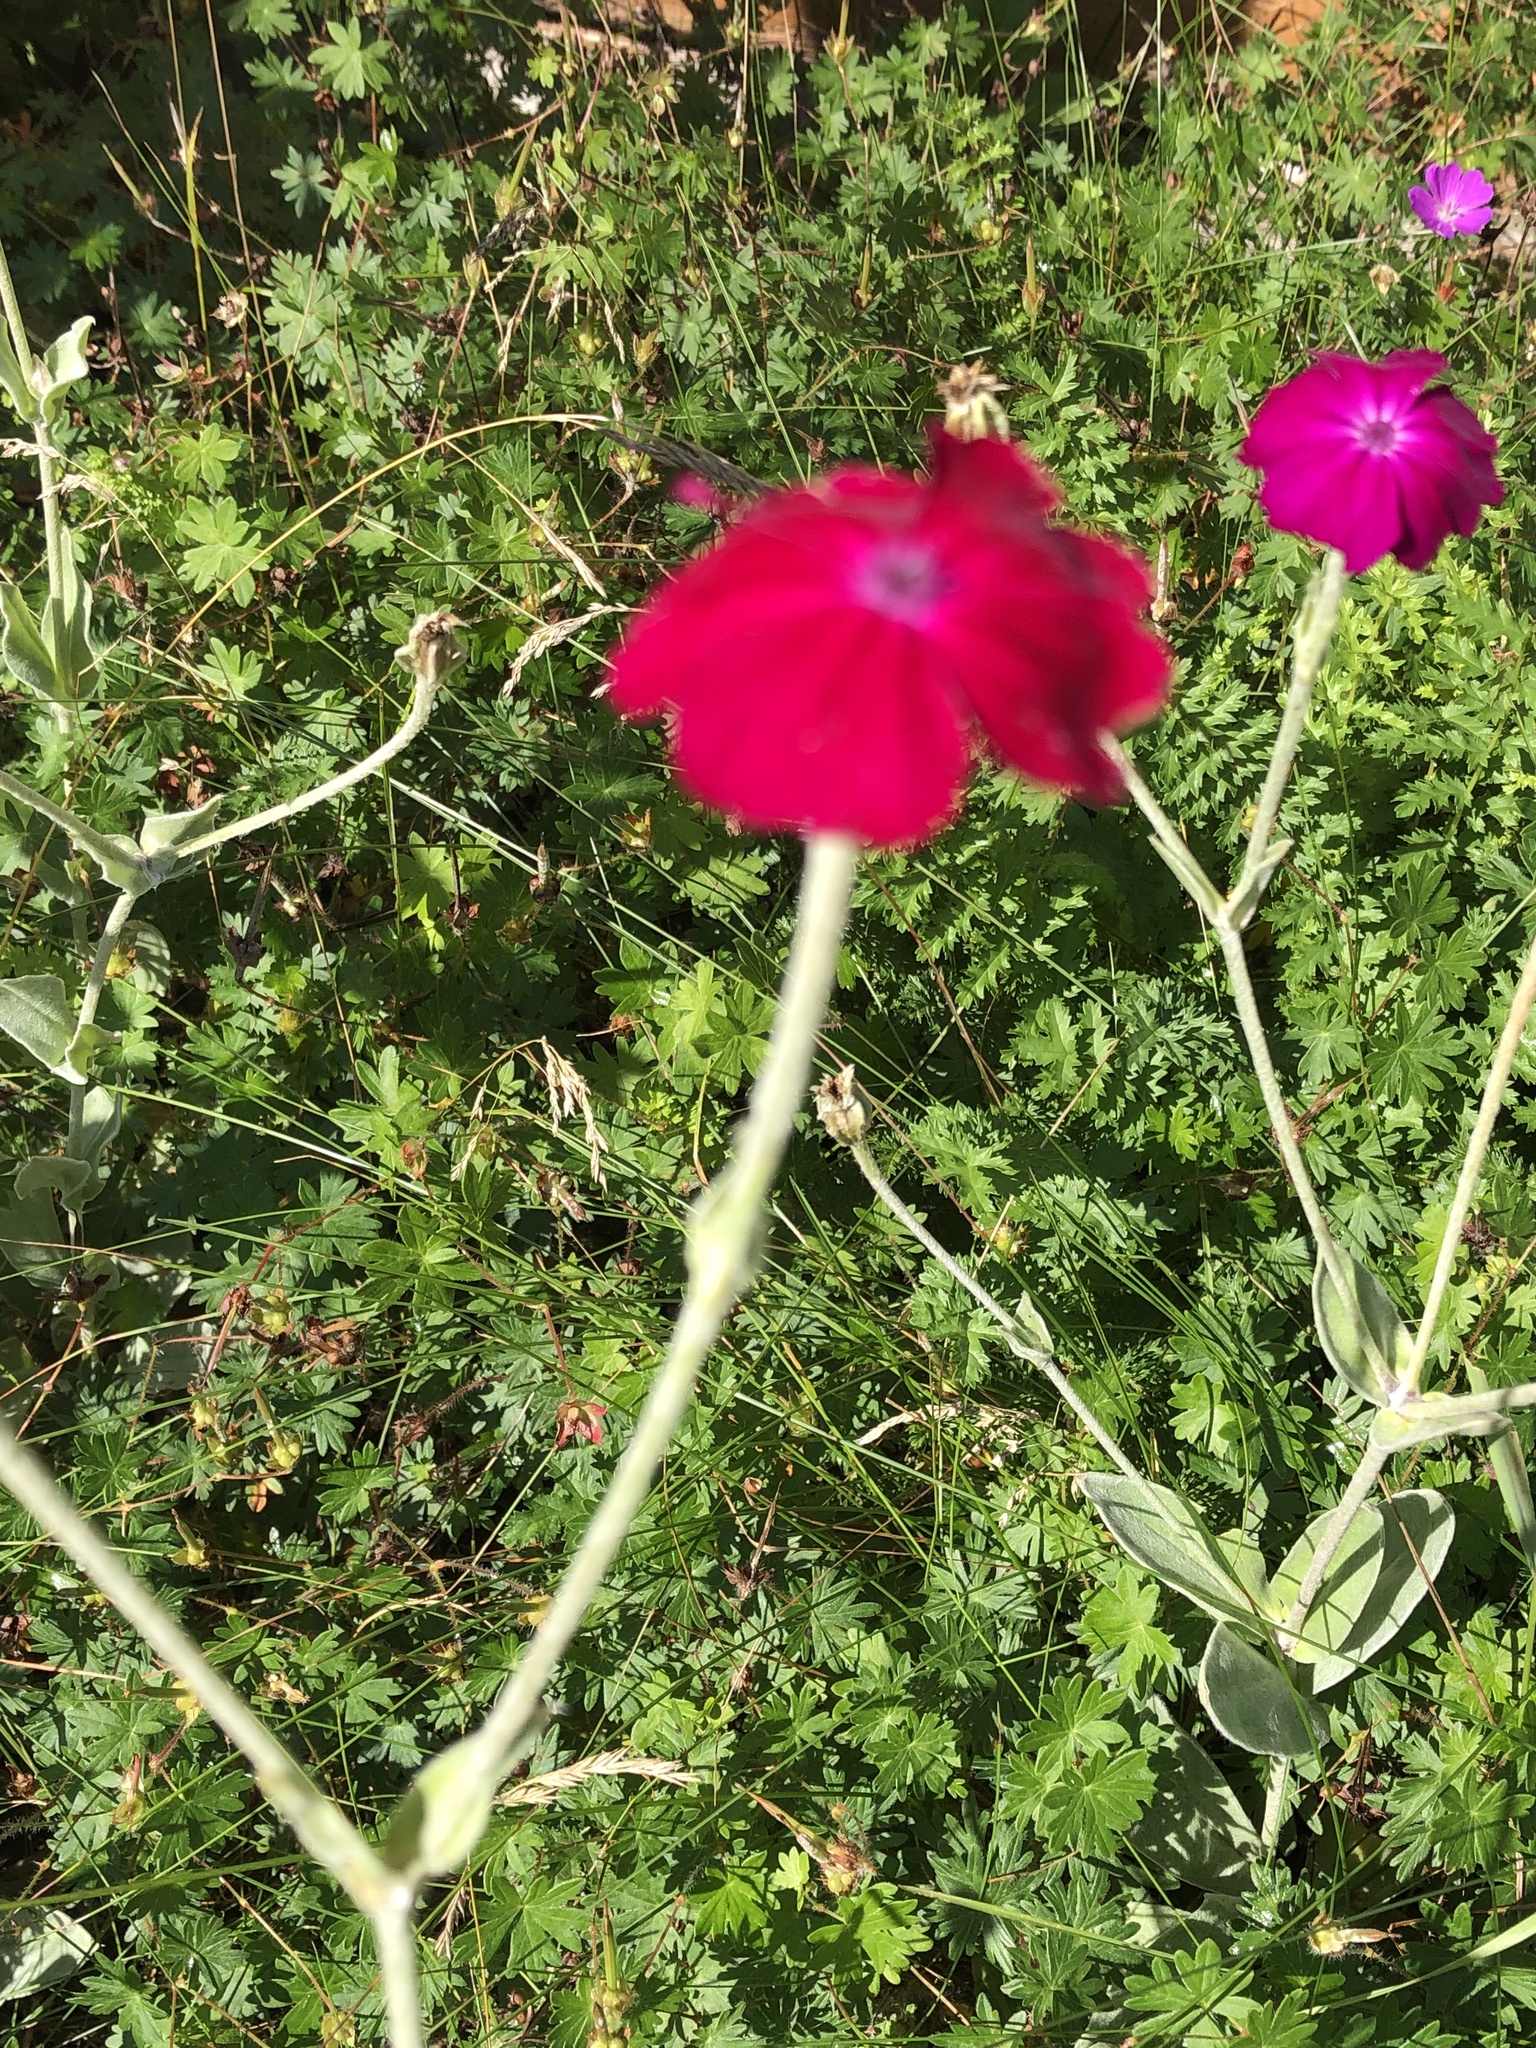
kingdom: Plantae
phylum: Tracheophyta
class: Magnoliopsida
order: Caryophyllales
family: Caryophyllaceae
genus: Silene
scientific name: Silene coronaria
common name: Rose campion
